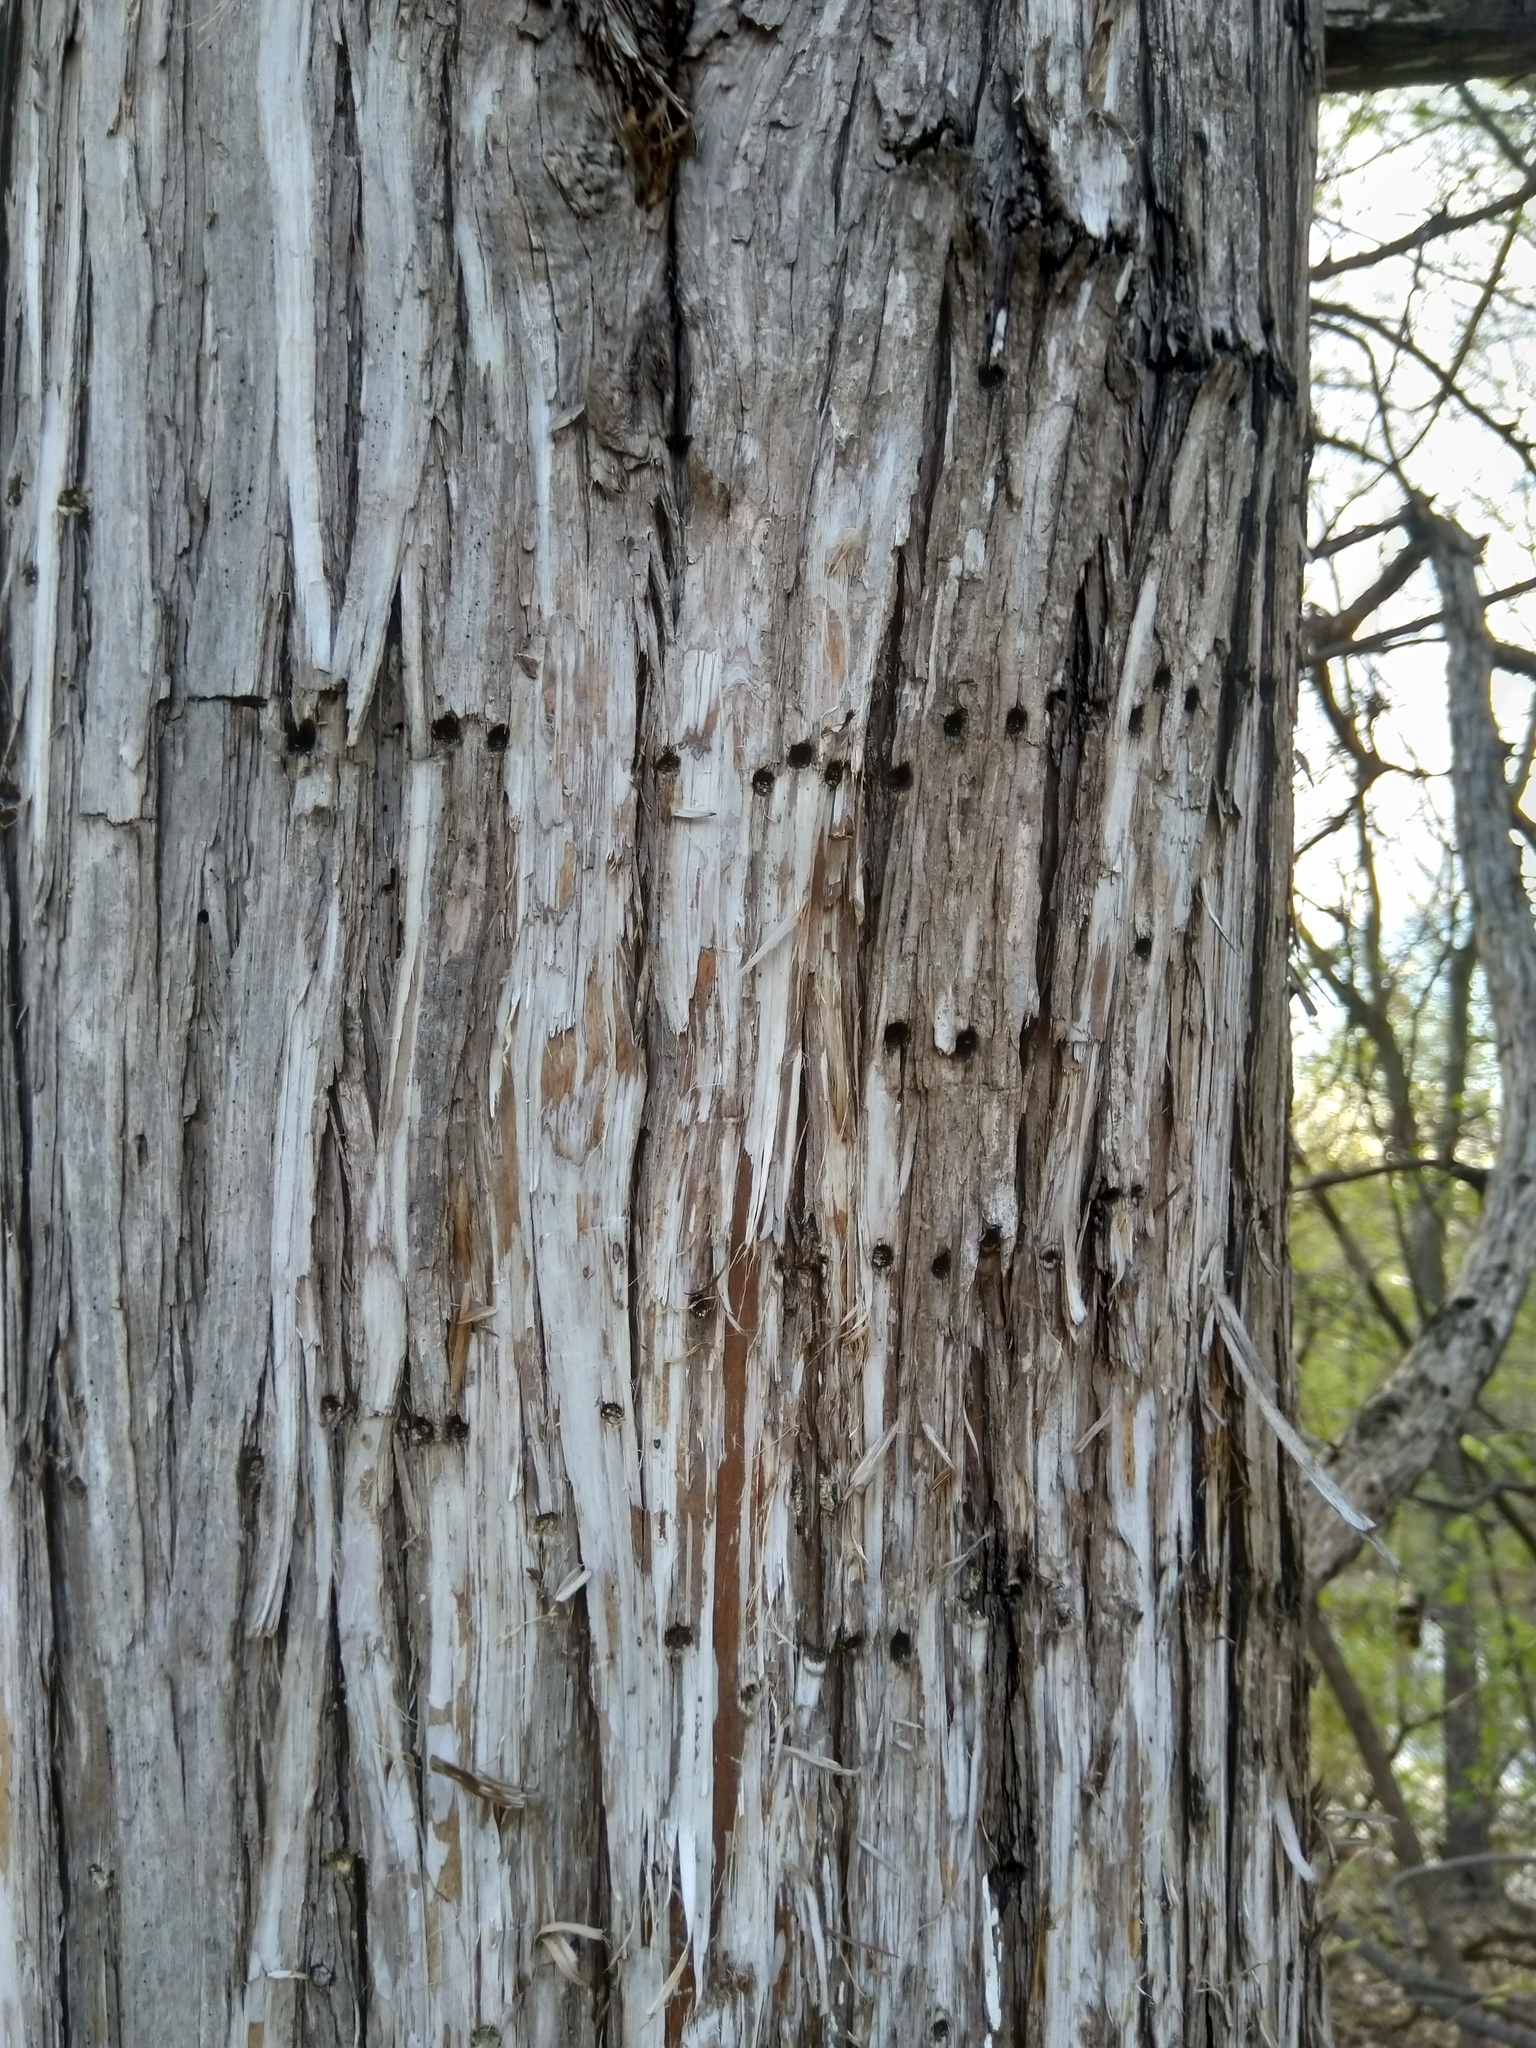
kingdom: Plantae
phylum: Tracheophyta
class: Pinopsida
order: Pinales
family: Cupressaceae
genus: Juniperus
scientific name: Juniperus virginiana
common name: Red juniper
